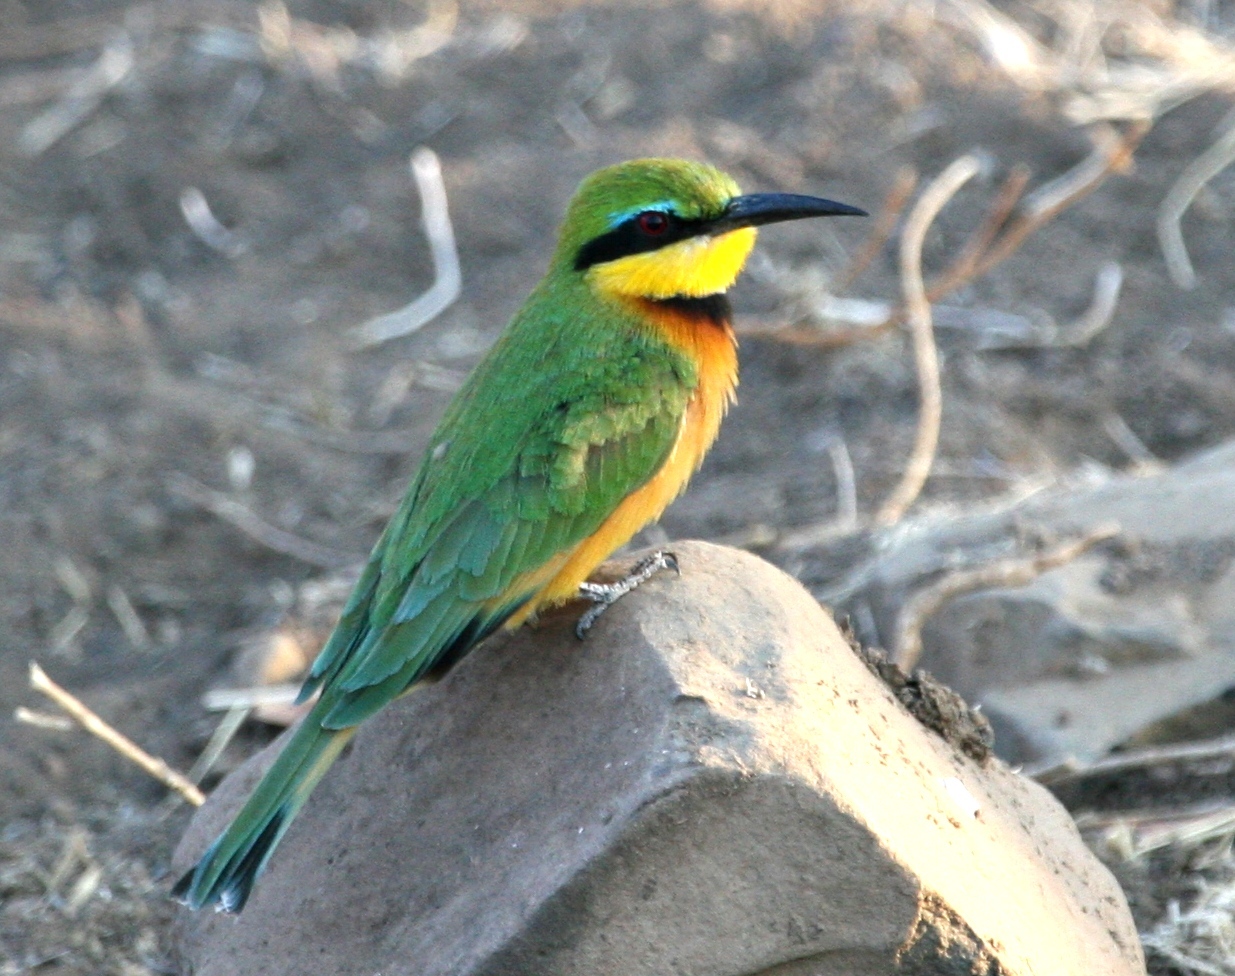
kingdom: Animalia
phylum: Chordata
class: Aves
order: Coraciiformes
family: Meropidae
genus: Merops
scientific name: Merops pusillus
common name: Little bee-eater
